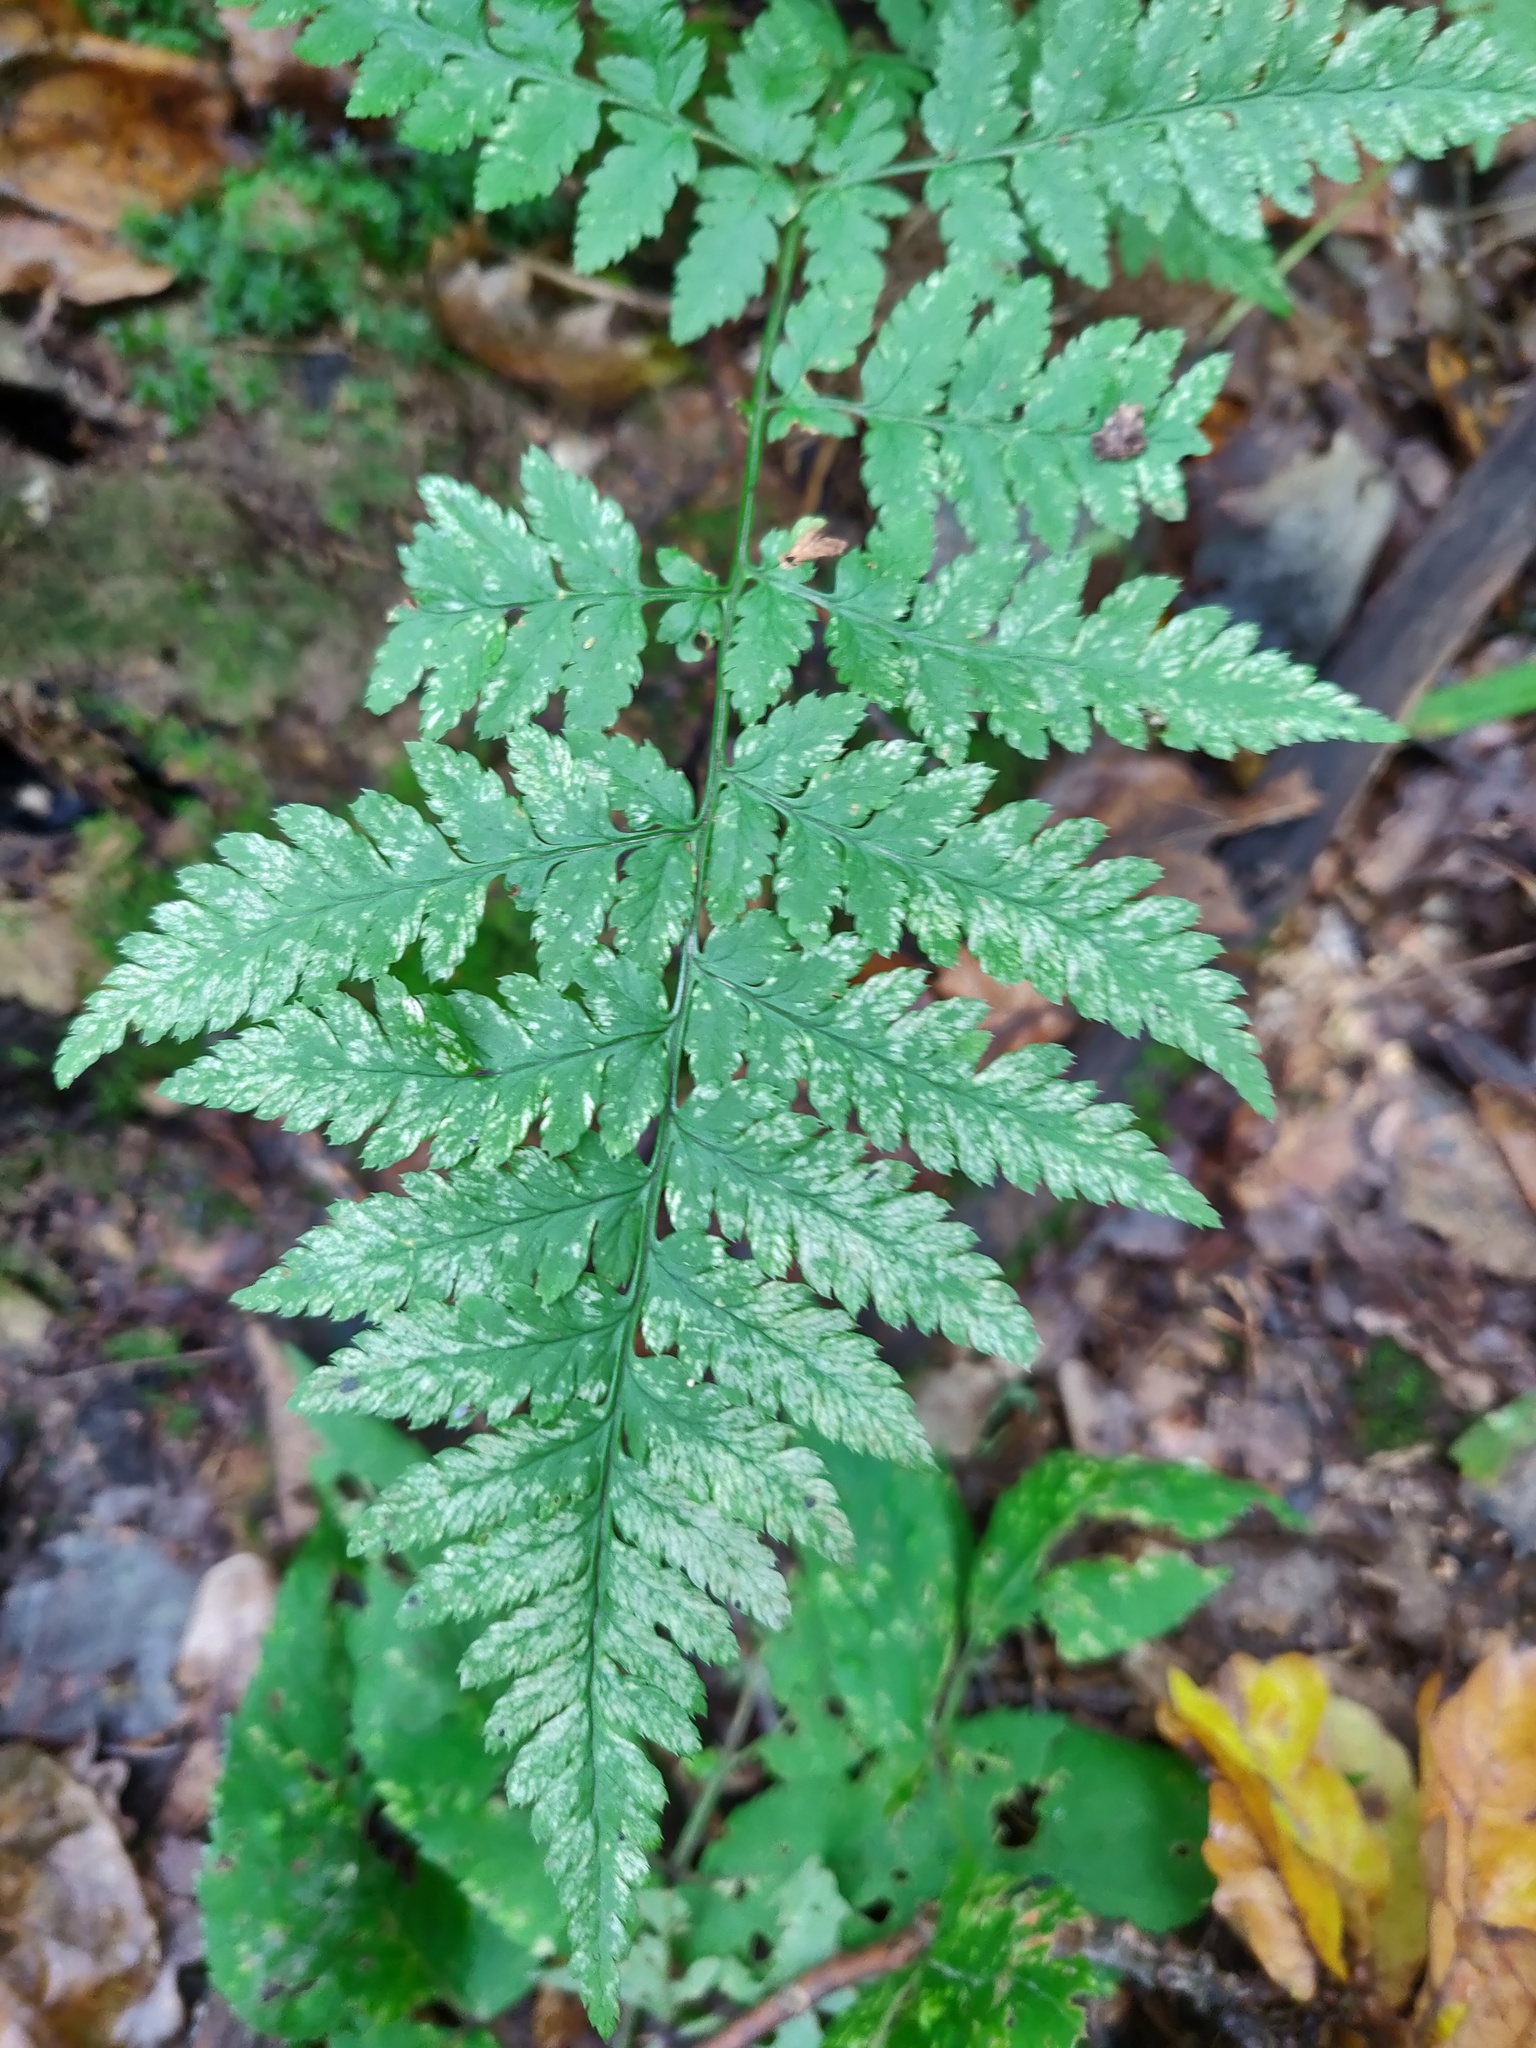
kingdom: Plantae
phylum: Tracheophyta
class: Polypodiopsida
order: Polypodiales
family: Dryopteridaceae
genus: Dryopteris
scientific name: Dryopteris carthusiana
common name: Narrow buckler-fern
